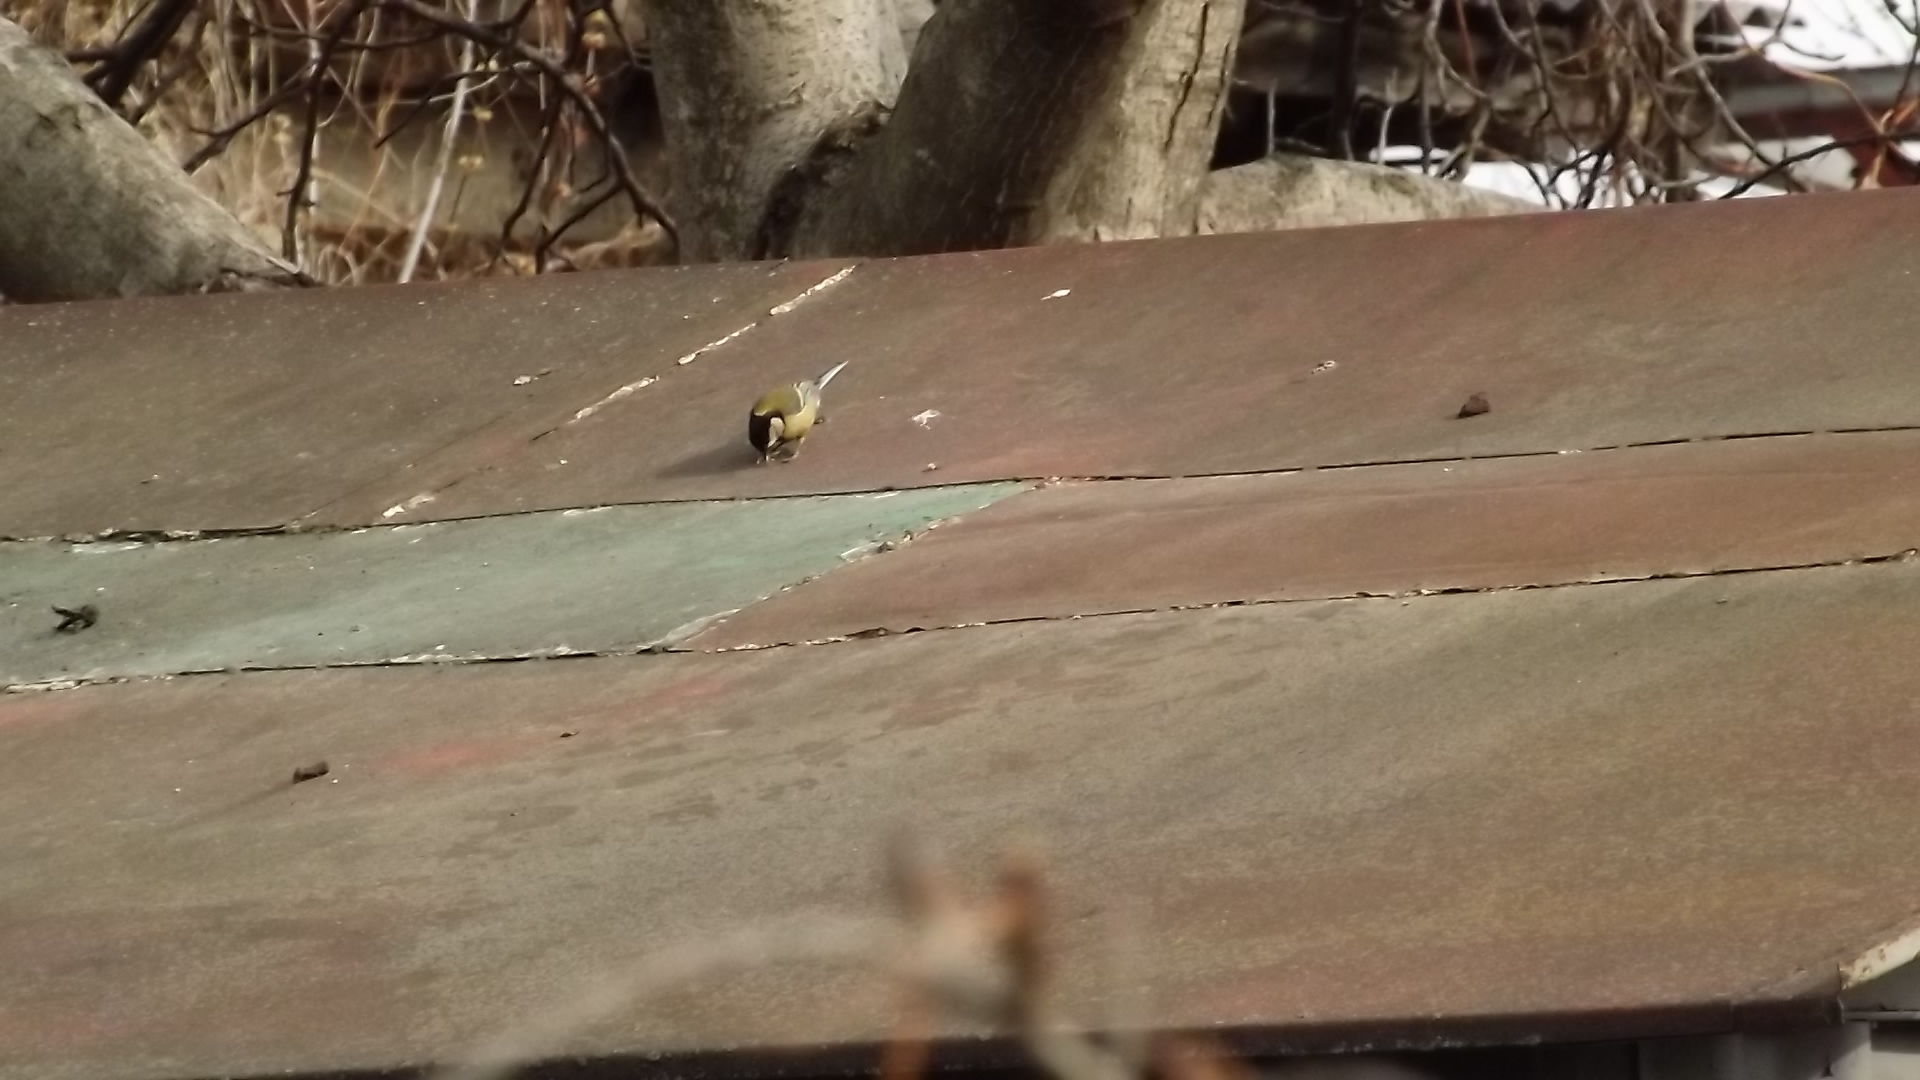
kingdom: Animalia
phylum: Chordata
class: Aves
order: Passeriformes
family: Paridae
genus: Parus
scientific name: Parus major
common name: Great tit
